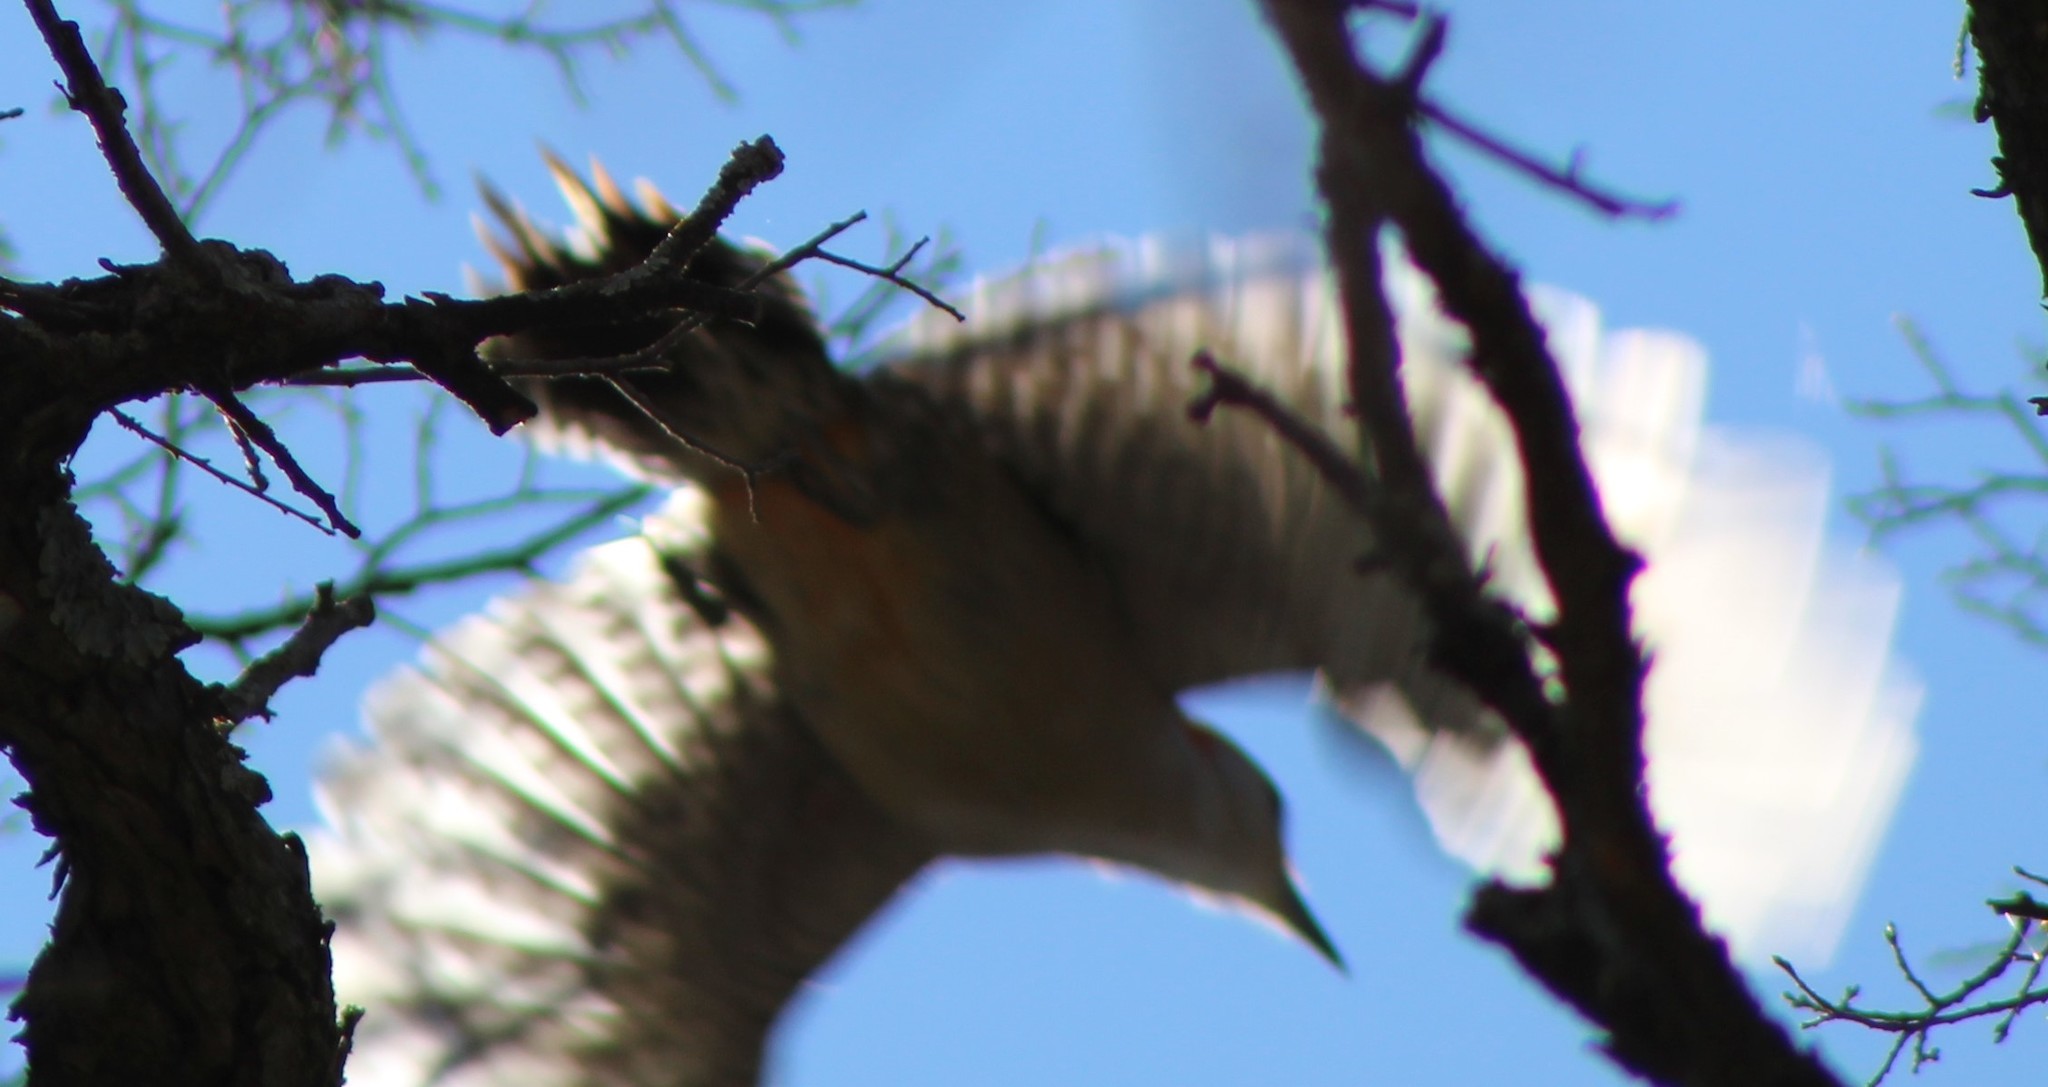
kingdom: Animalia
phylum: Chordata
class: Aves
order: Piciformes
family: Picidae
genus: Melanerpes
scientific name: Melanerpes carolinus
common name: Red-bellied woodpecker
